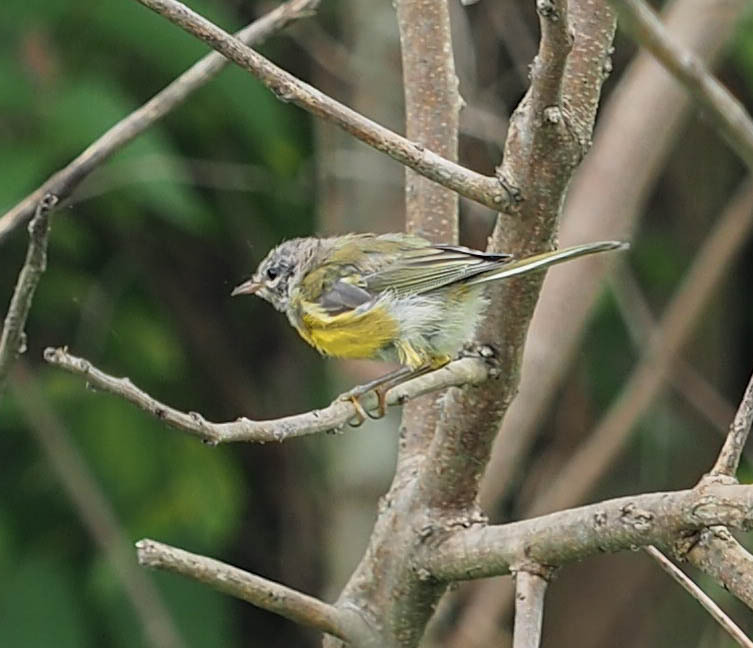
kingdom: Animalia
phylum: Chordata
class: Aves
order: Passeriformes
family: Parulidae
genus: Setophaga
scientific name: Setophaga discolor
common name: Prairie warbler
